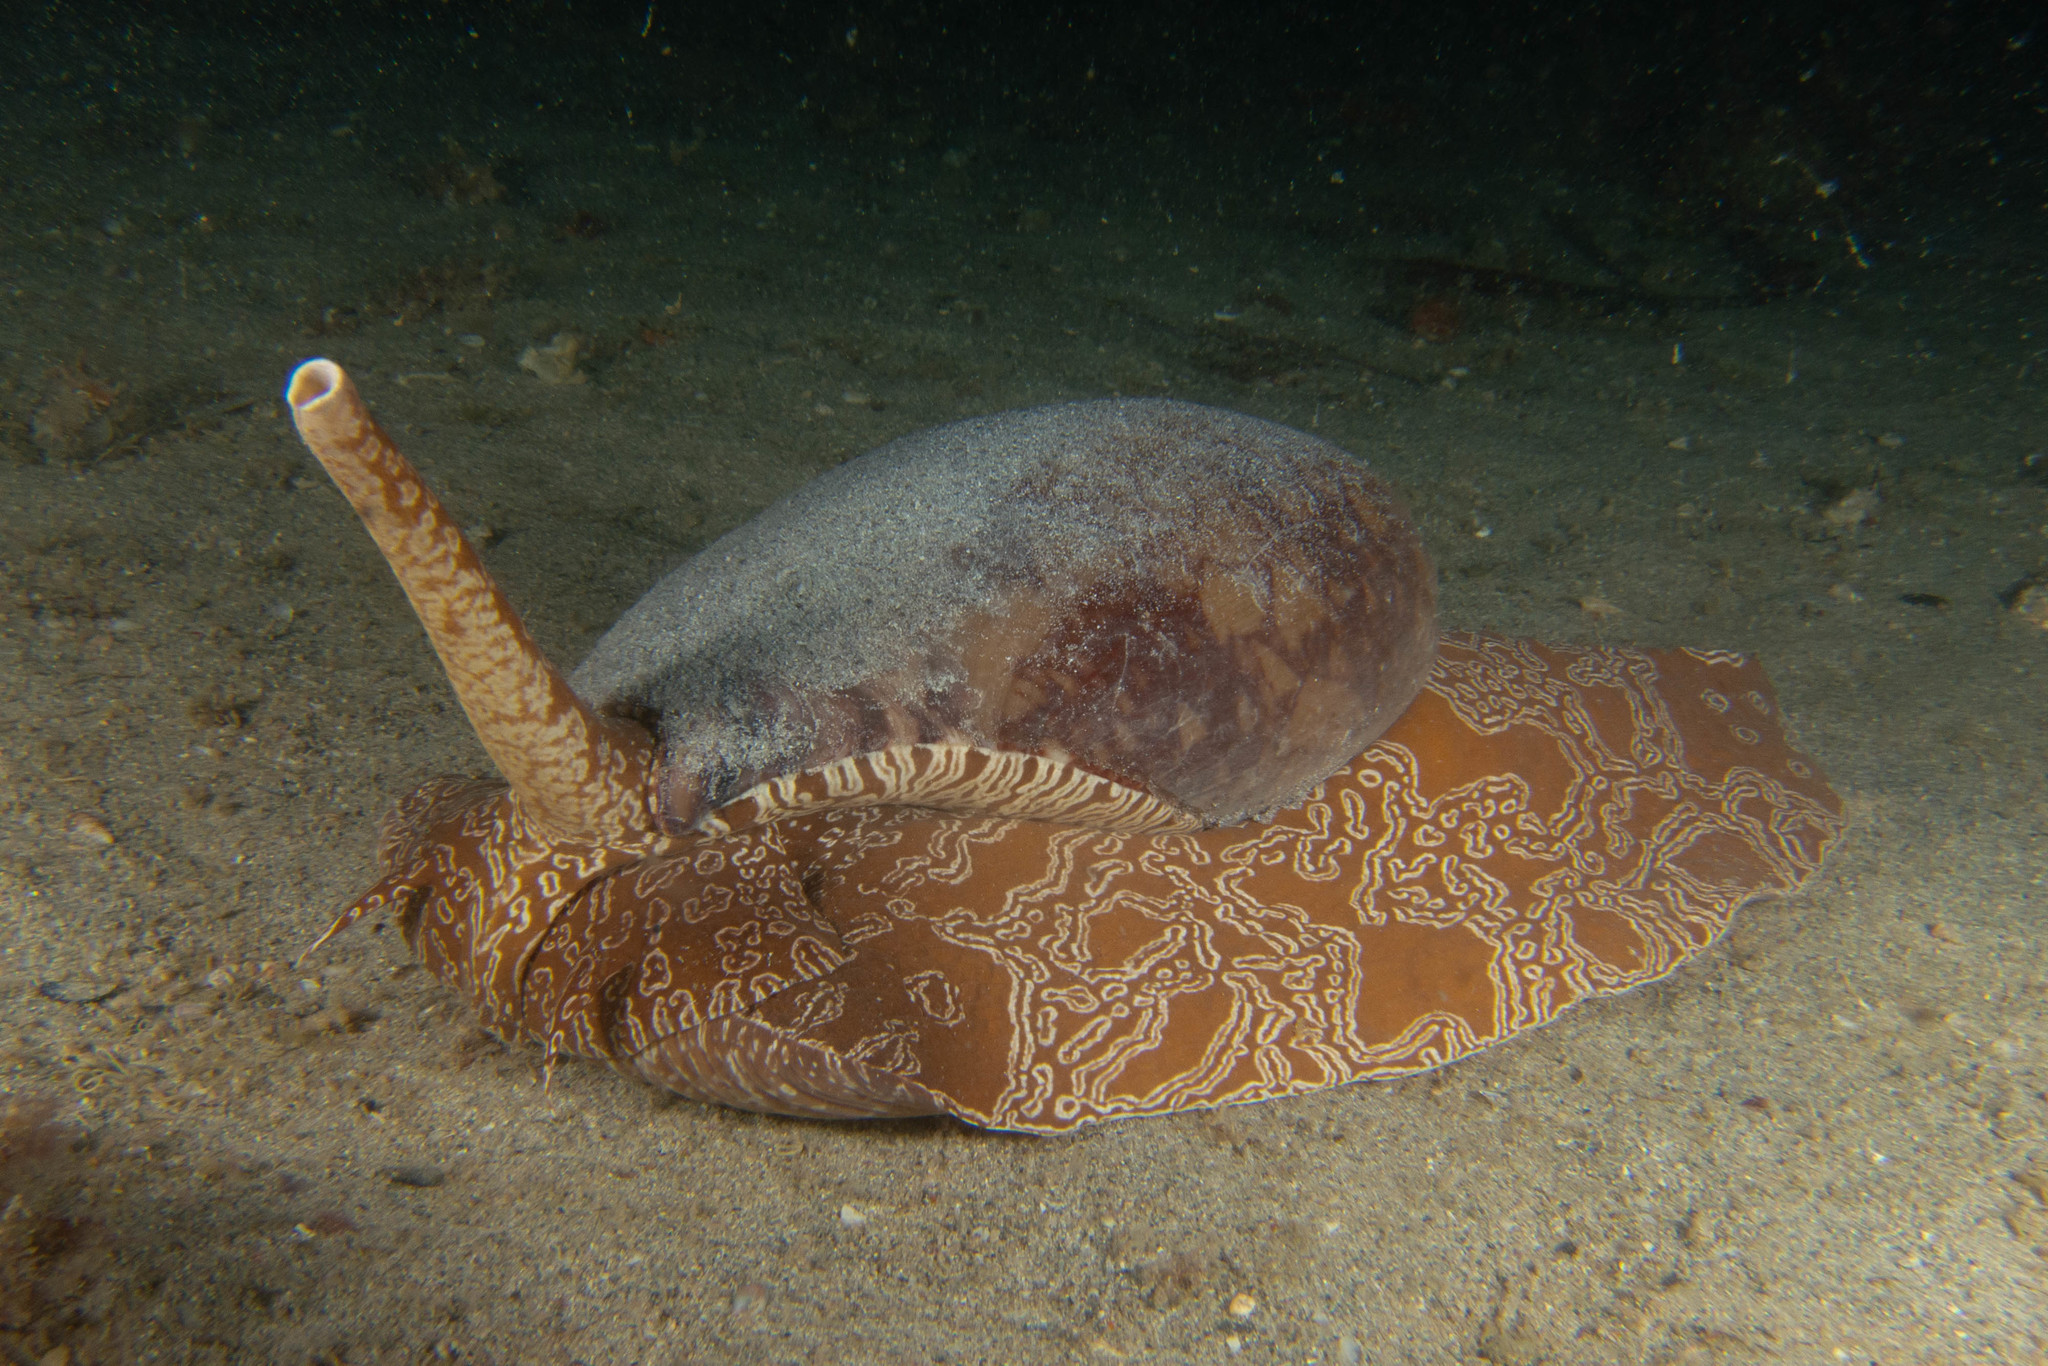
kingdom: Animalia
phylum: Mollusca
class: Gastropoda
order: Neogastropoda
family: Volutidae
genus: Melo
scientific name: Melo miltonis
